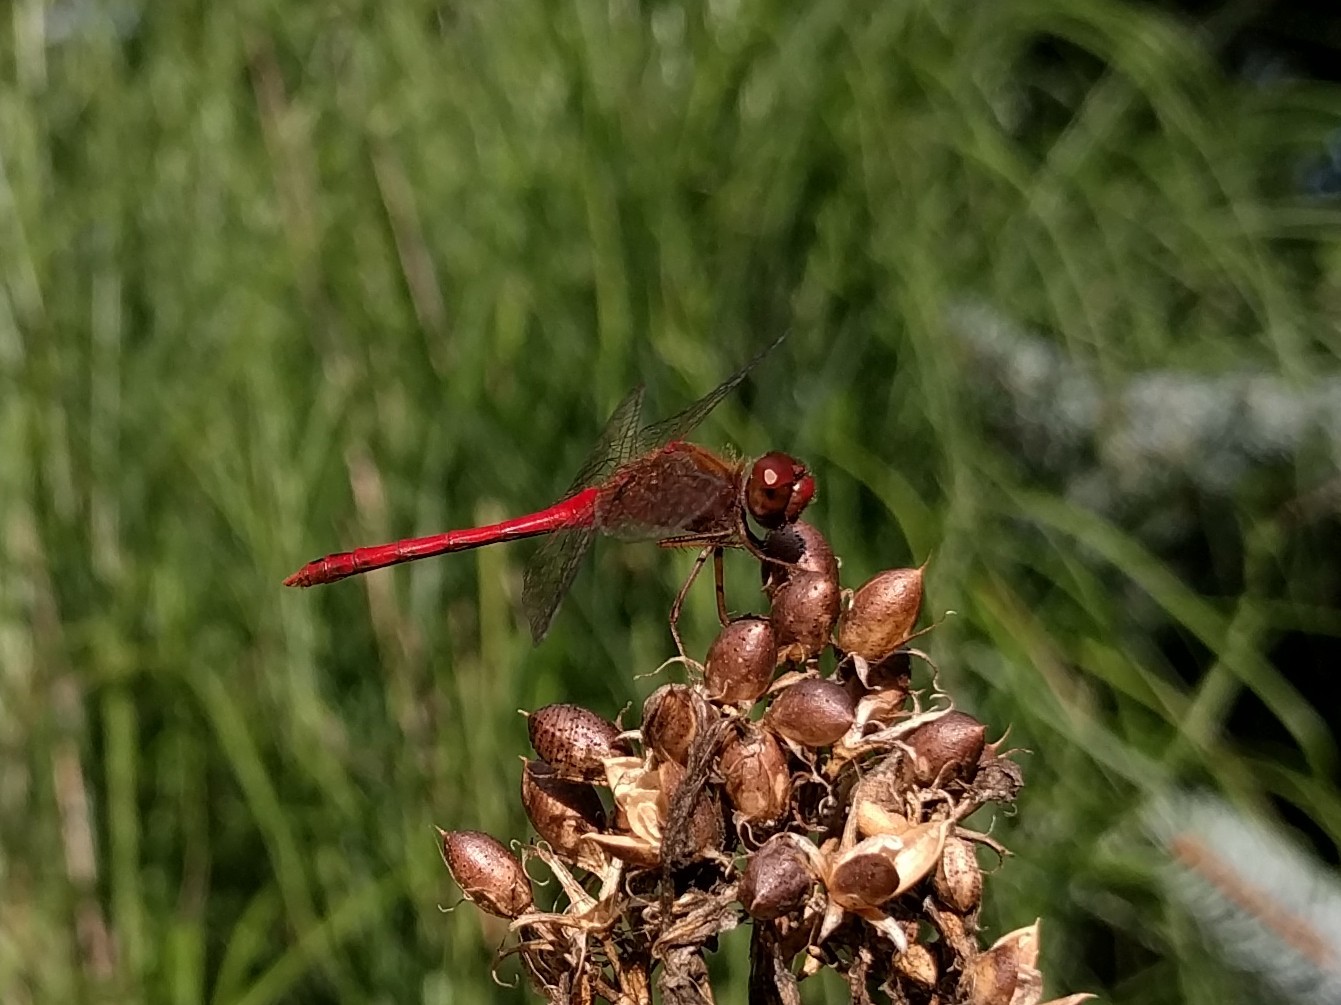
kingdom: Animalia
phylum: Arthropoda
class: Insecta
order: Odonata
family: Libellulidae
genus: Sympetrum
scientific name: Sympetrum vicinum
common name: Autumn meadowhawk
